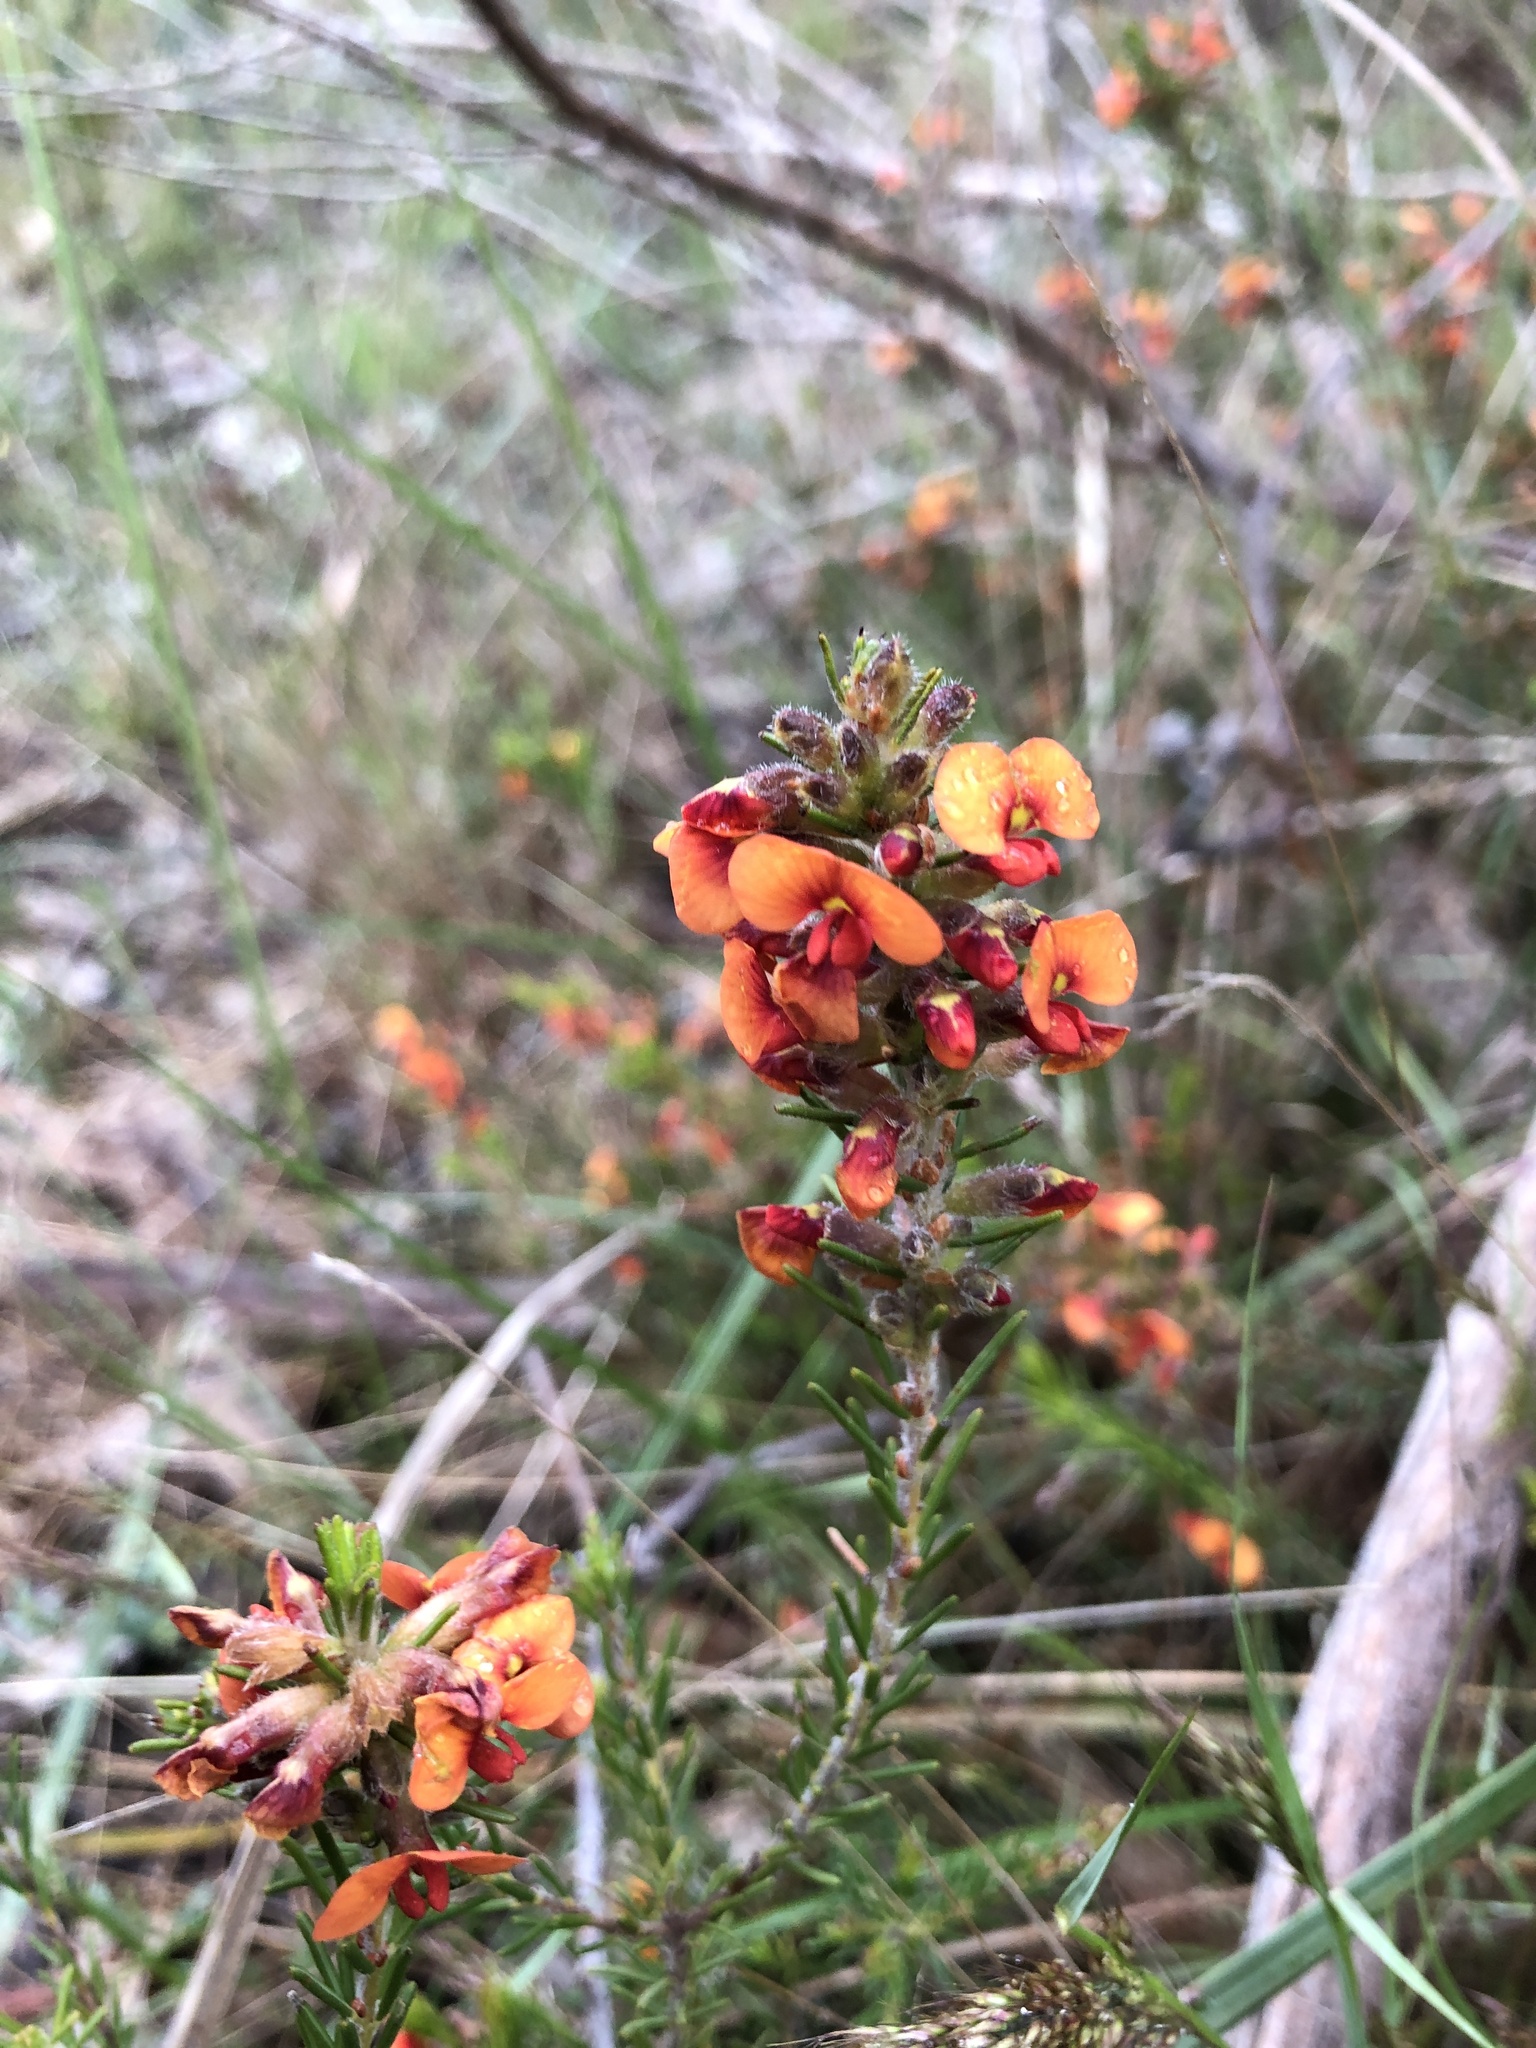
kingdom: Plantae
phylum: Tracheophyta
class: Magnoliopsida
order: Fabales
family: Fabaceae
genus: Dillwynia
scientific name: Dillwynia sericea
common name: Showy parrot-pea
